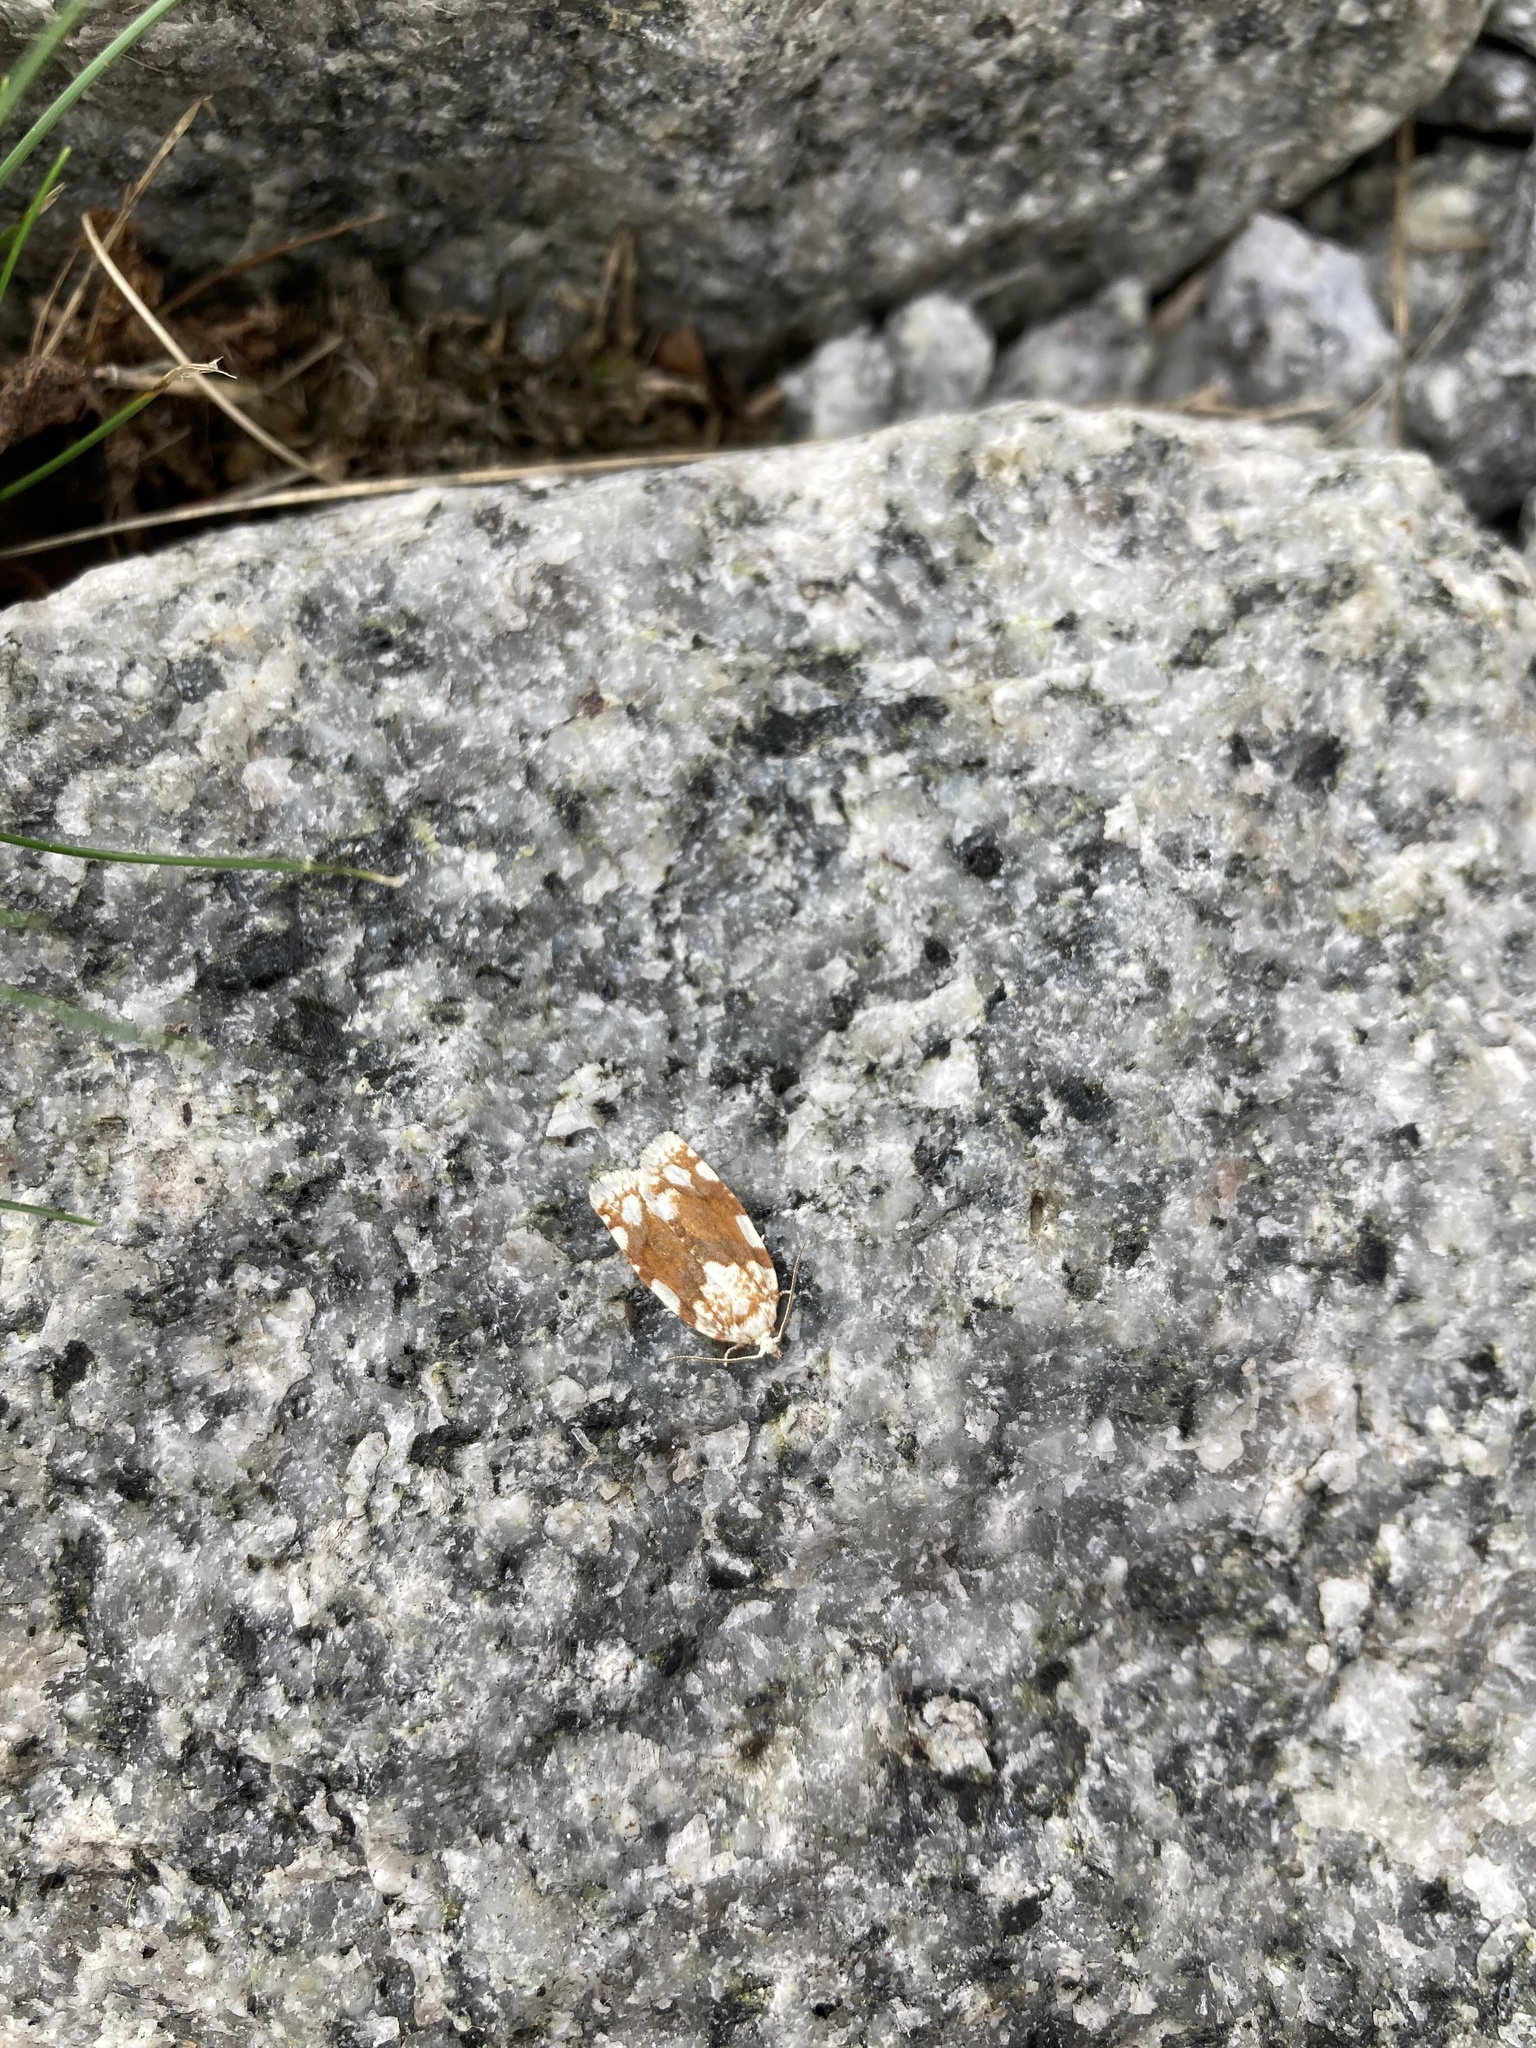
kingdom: Animalia
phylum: Arthropoda
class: Insecta
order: Lepidoptera
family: Tortricidae
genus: Argyrotaenia
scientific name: Argyrotaenia alisellana
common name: White-spotted leafroller moth
